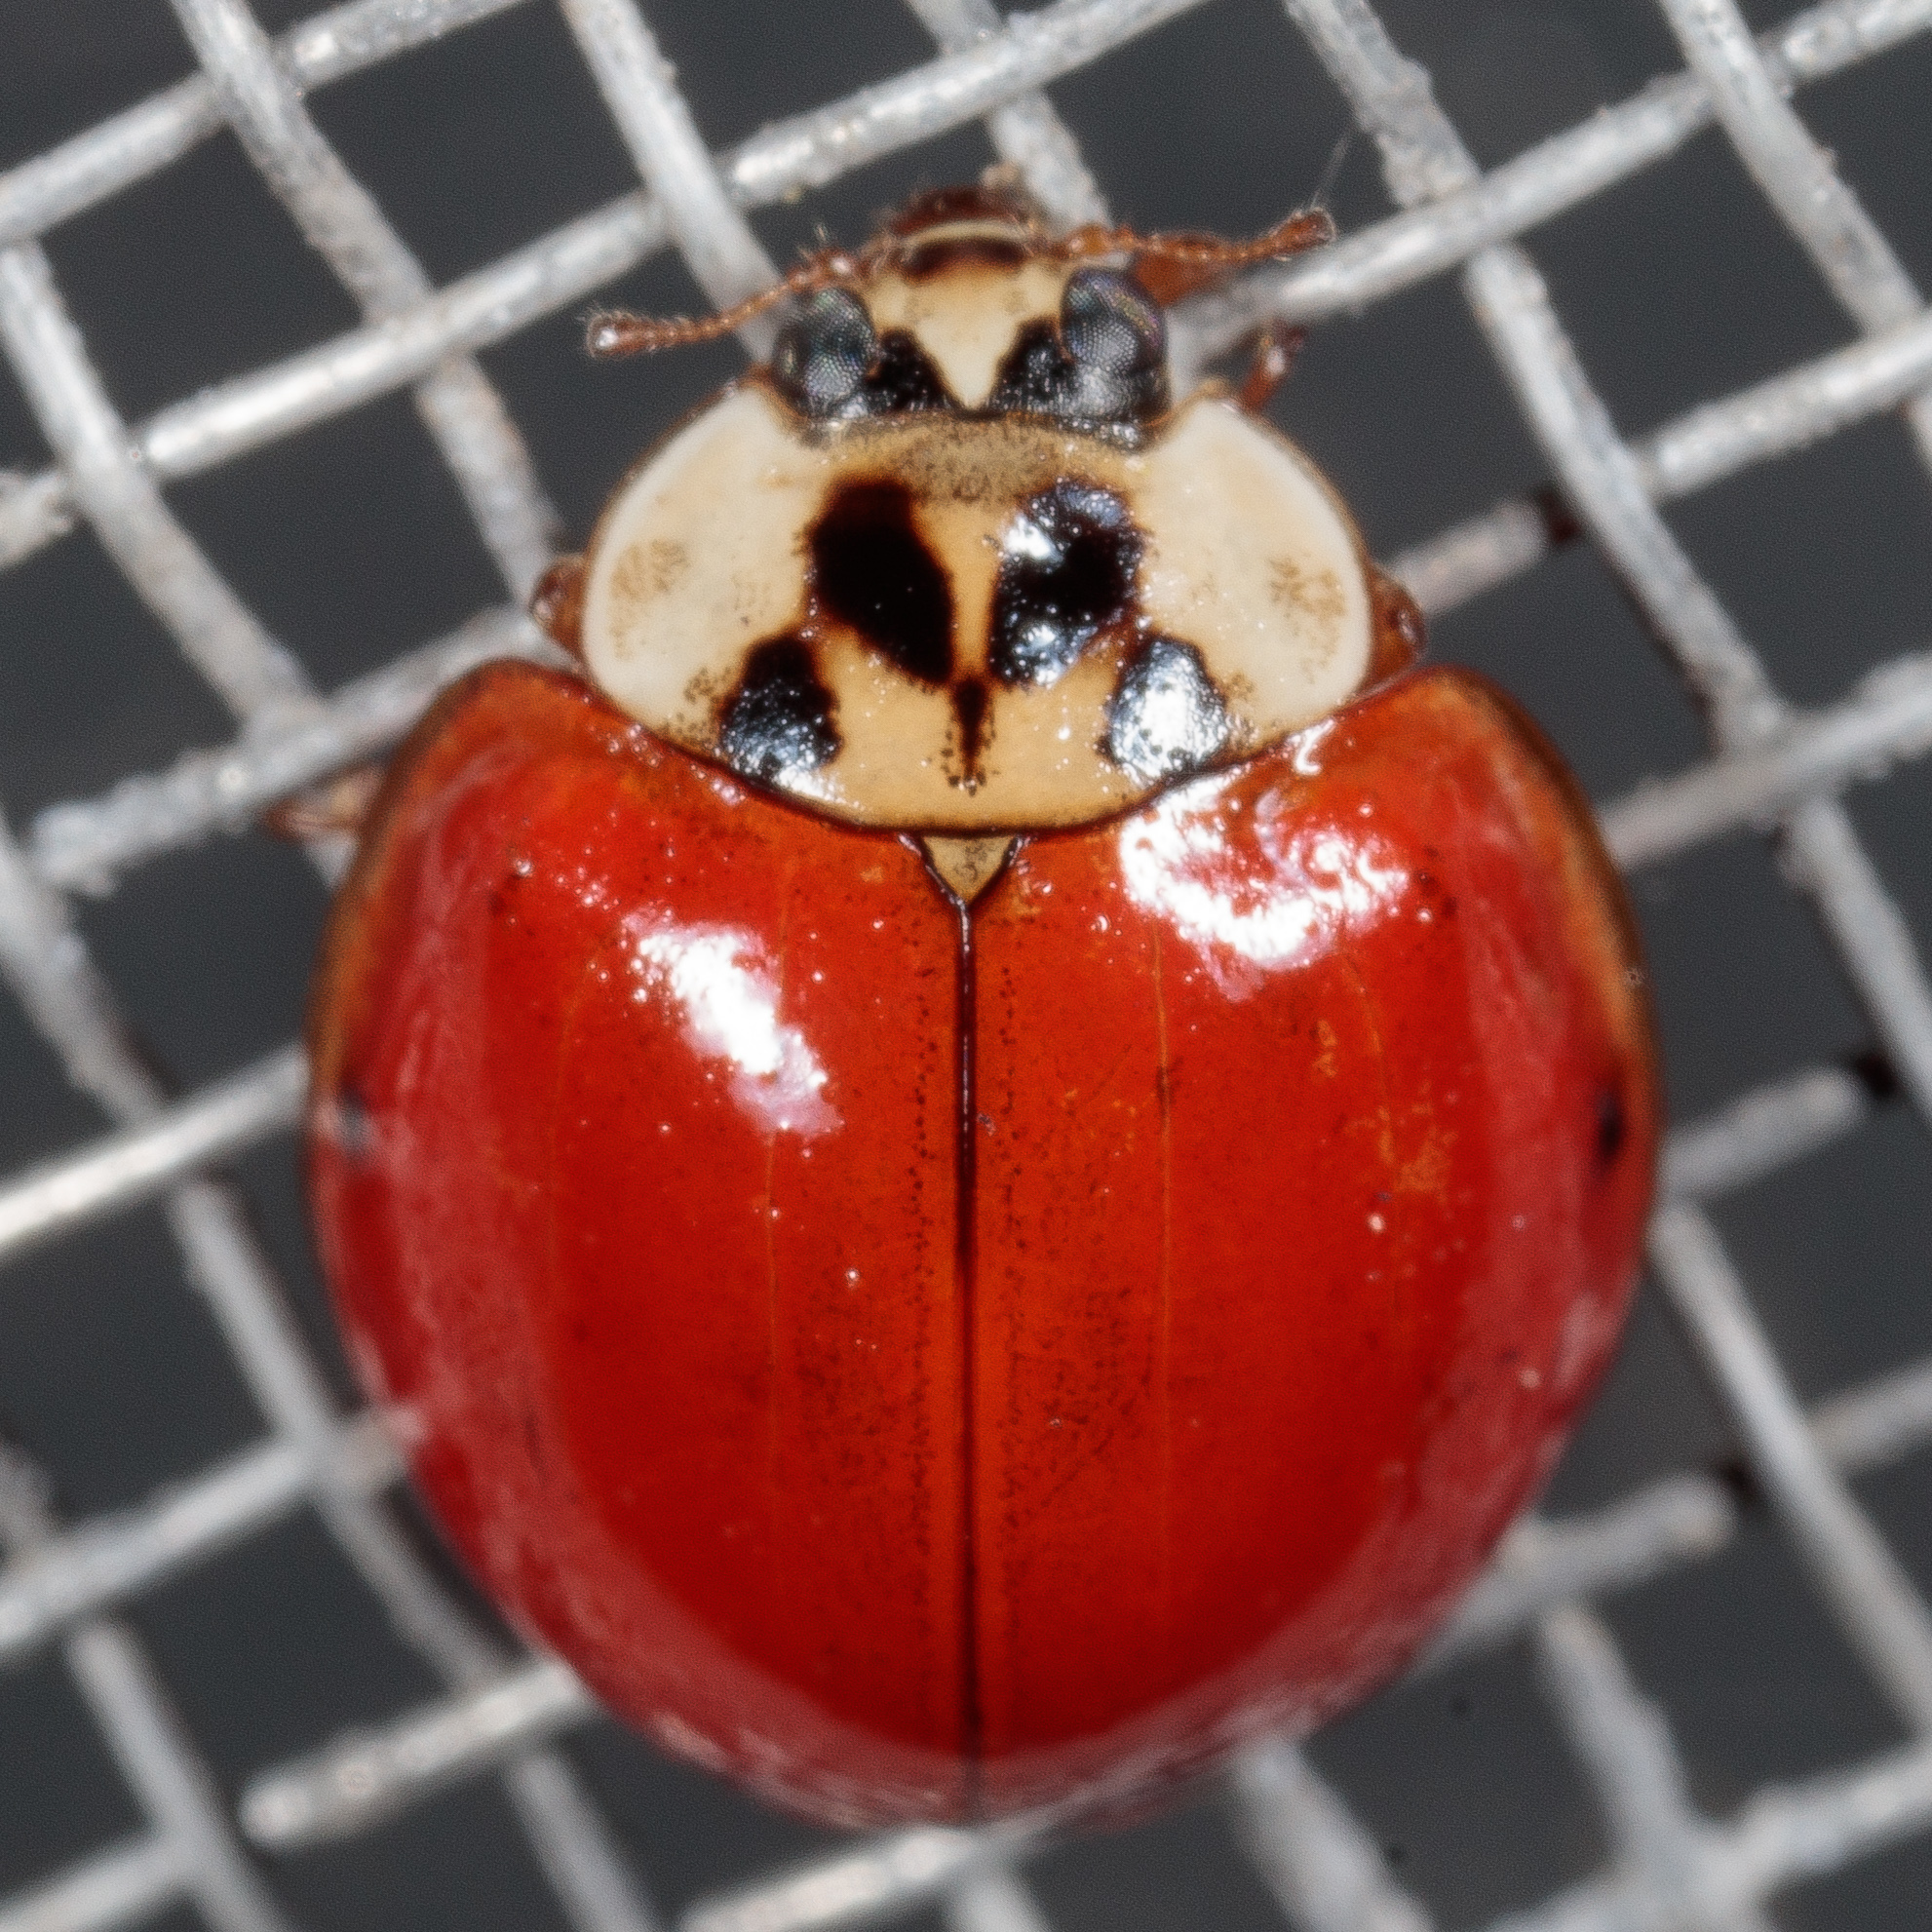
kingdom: Animalia
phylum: Arthropoda
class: Insecta
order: Coleoptera
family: Coccinellidae
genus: Harmonia
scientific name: Harmonia axyridis
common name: Harlequin ladybird
